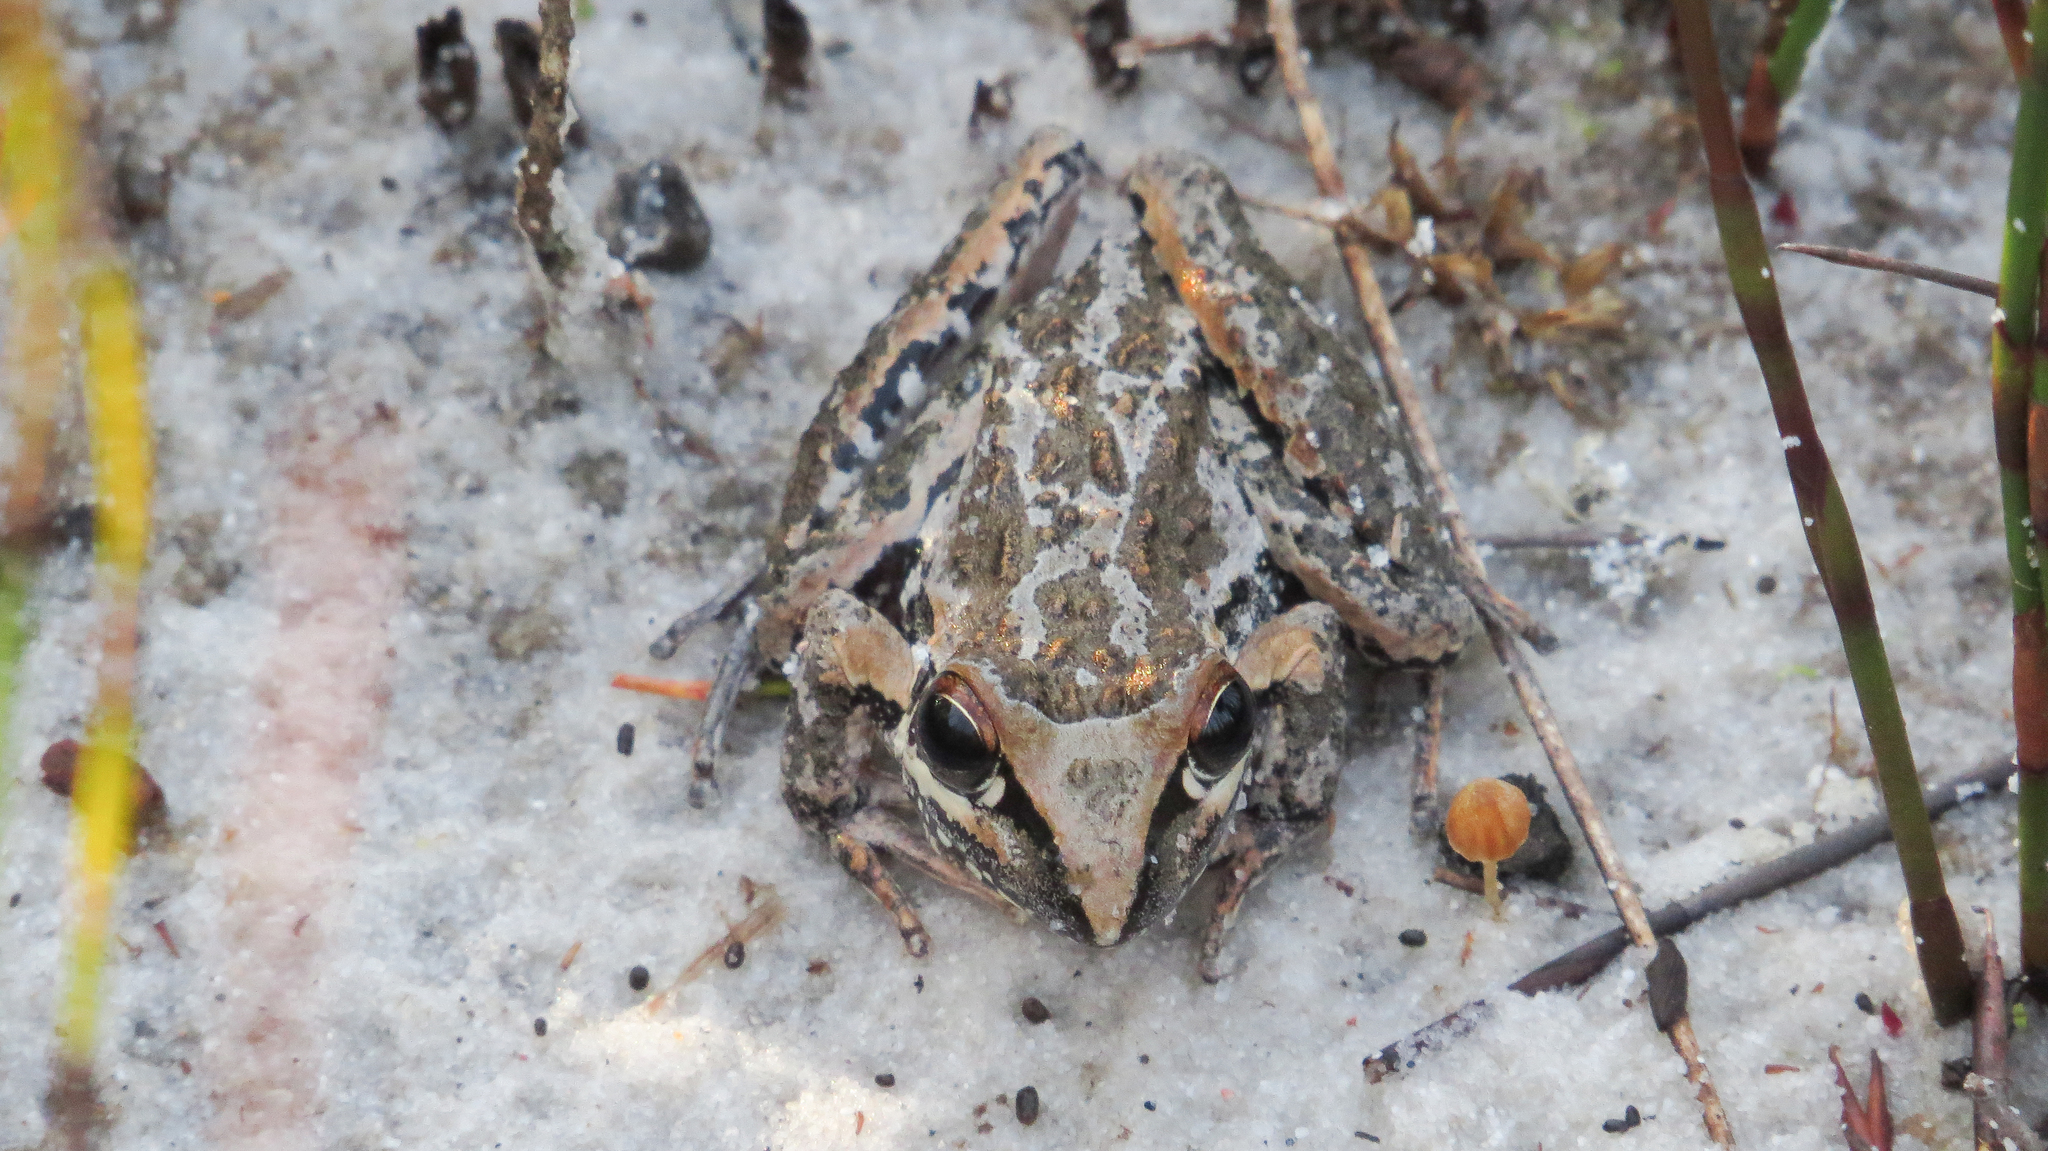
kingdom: Animalia
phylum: Chordata
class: Amphibia
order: Anura
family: Pelodryadidae
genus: Litoria
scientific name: Litoria freycineti
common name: Freycinet’s frog
